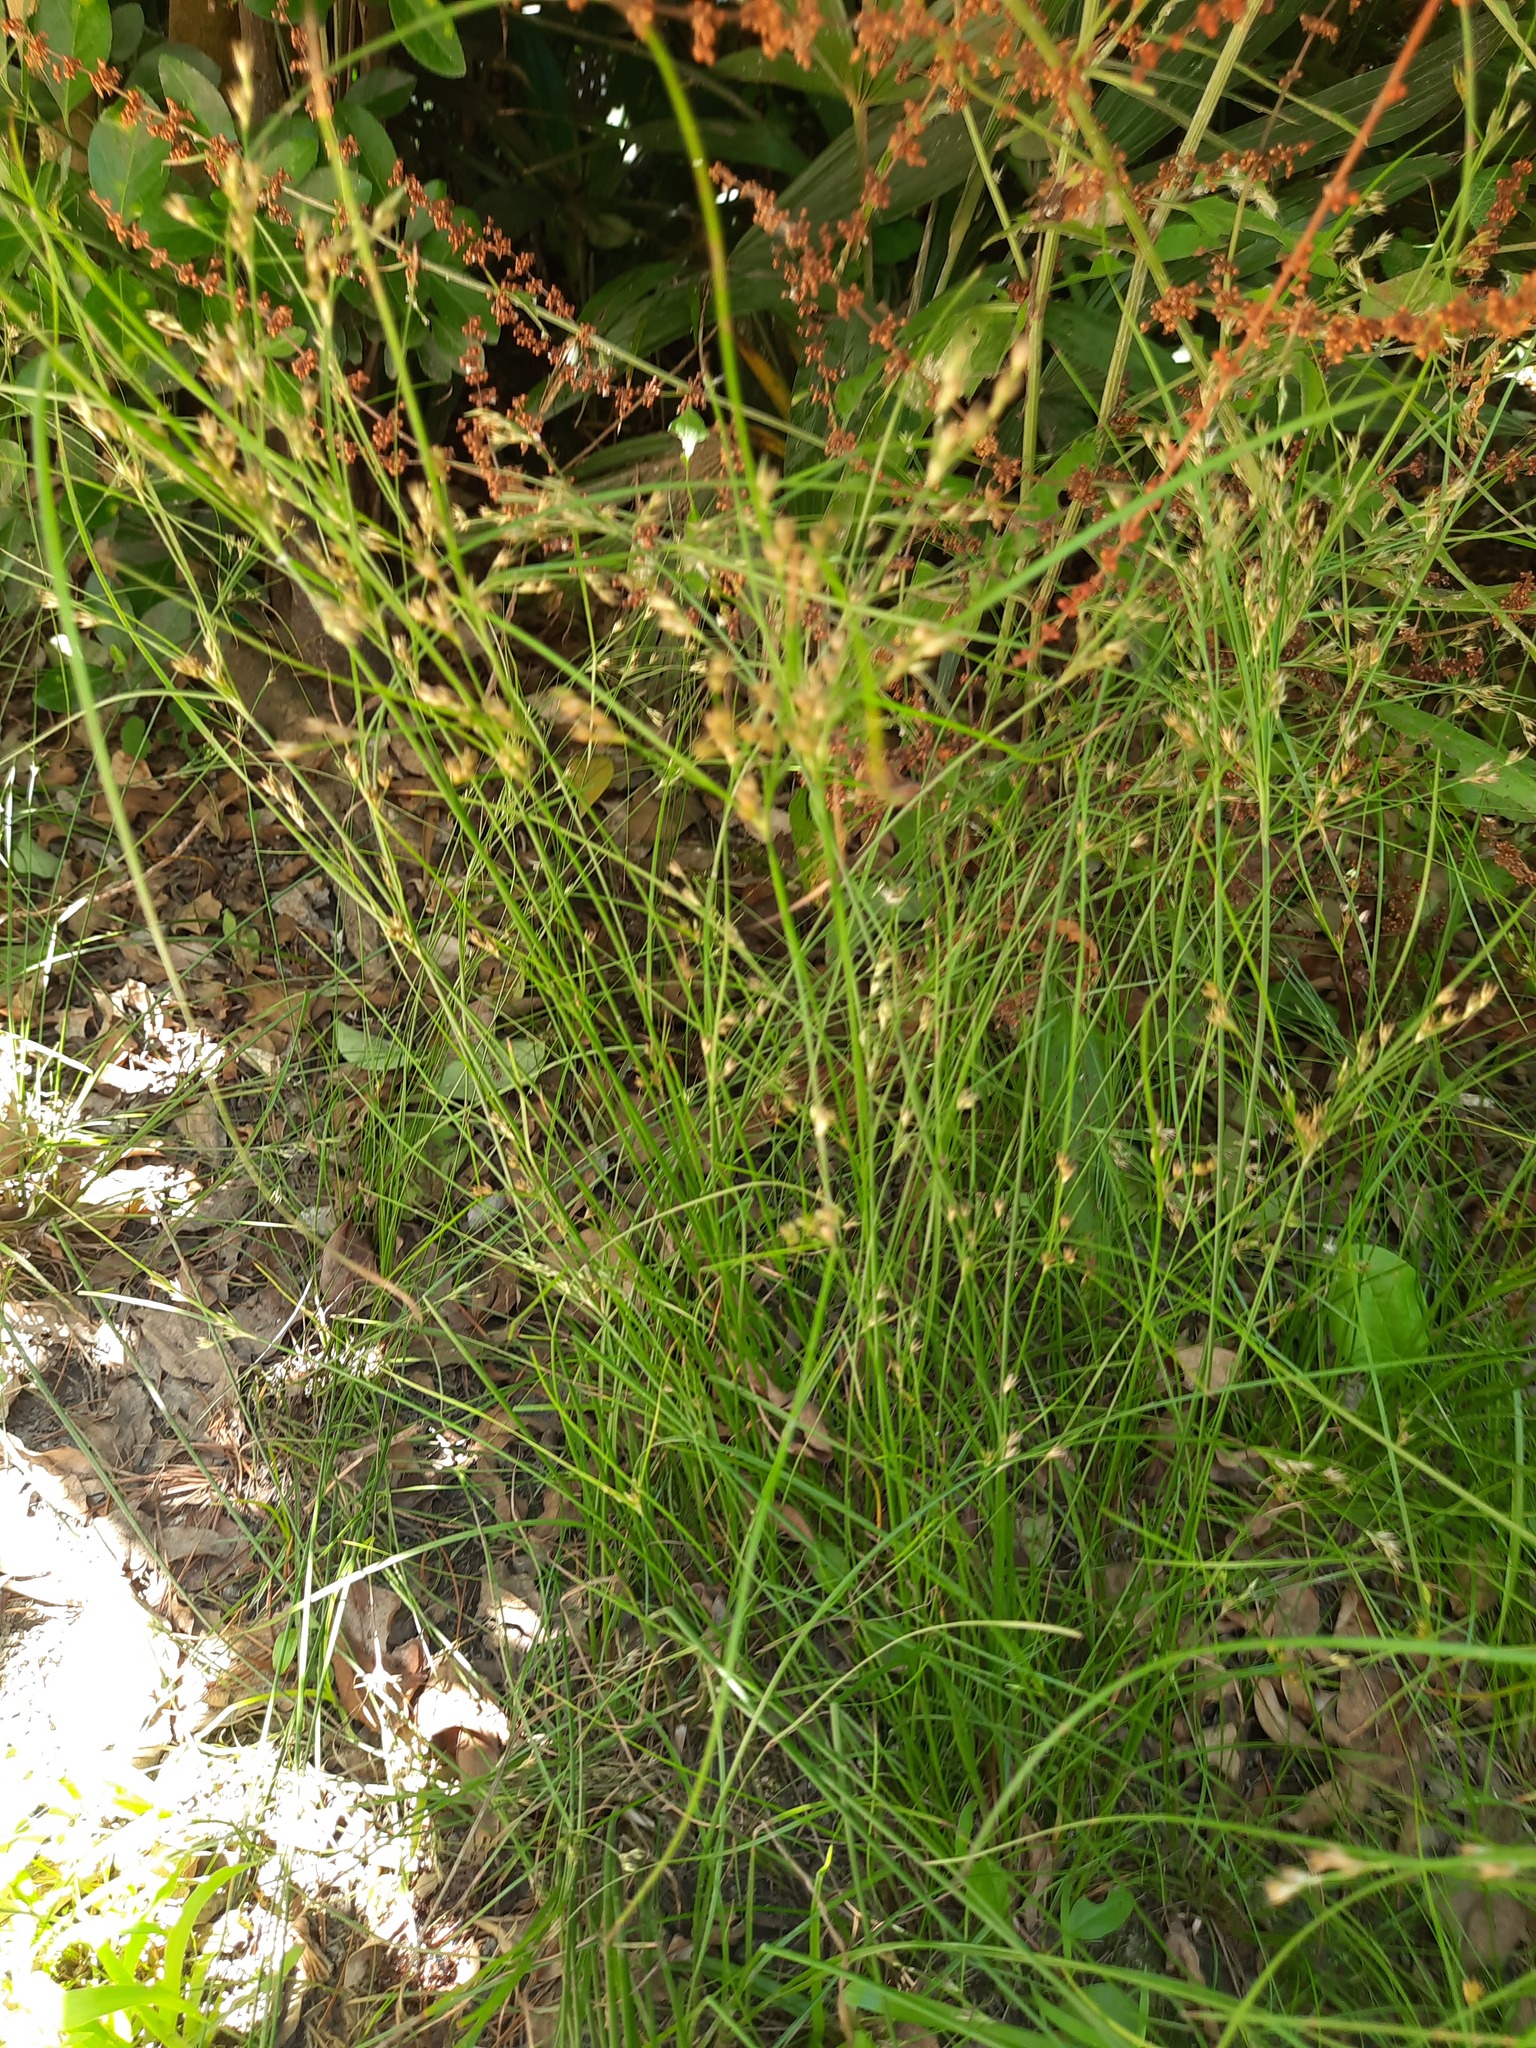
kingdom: Plantae
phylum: Tracheophyta
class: Liliopsida
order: Poales
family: Juncaceae
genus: Juncus
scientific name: Juncus tenuis
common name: Slender rush
